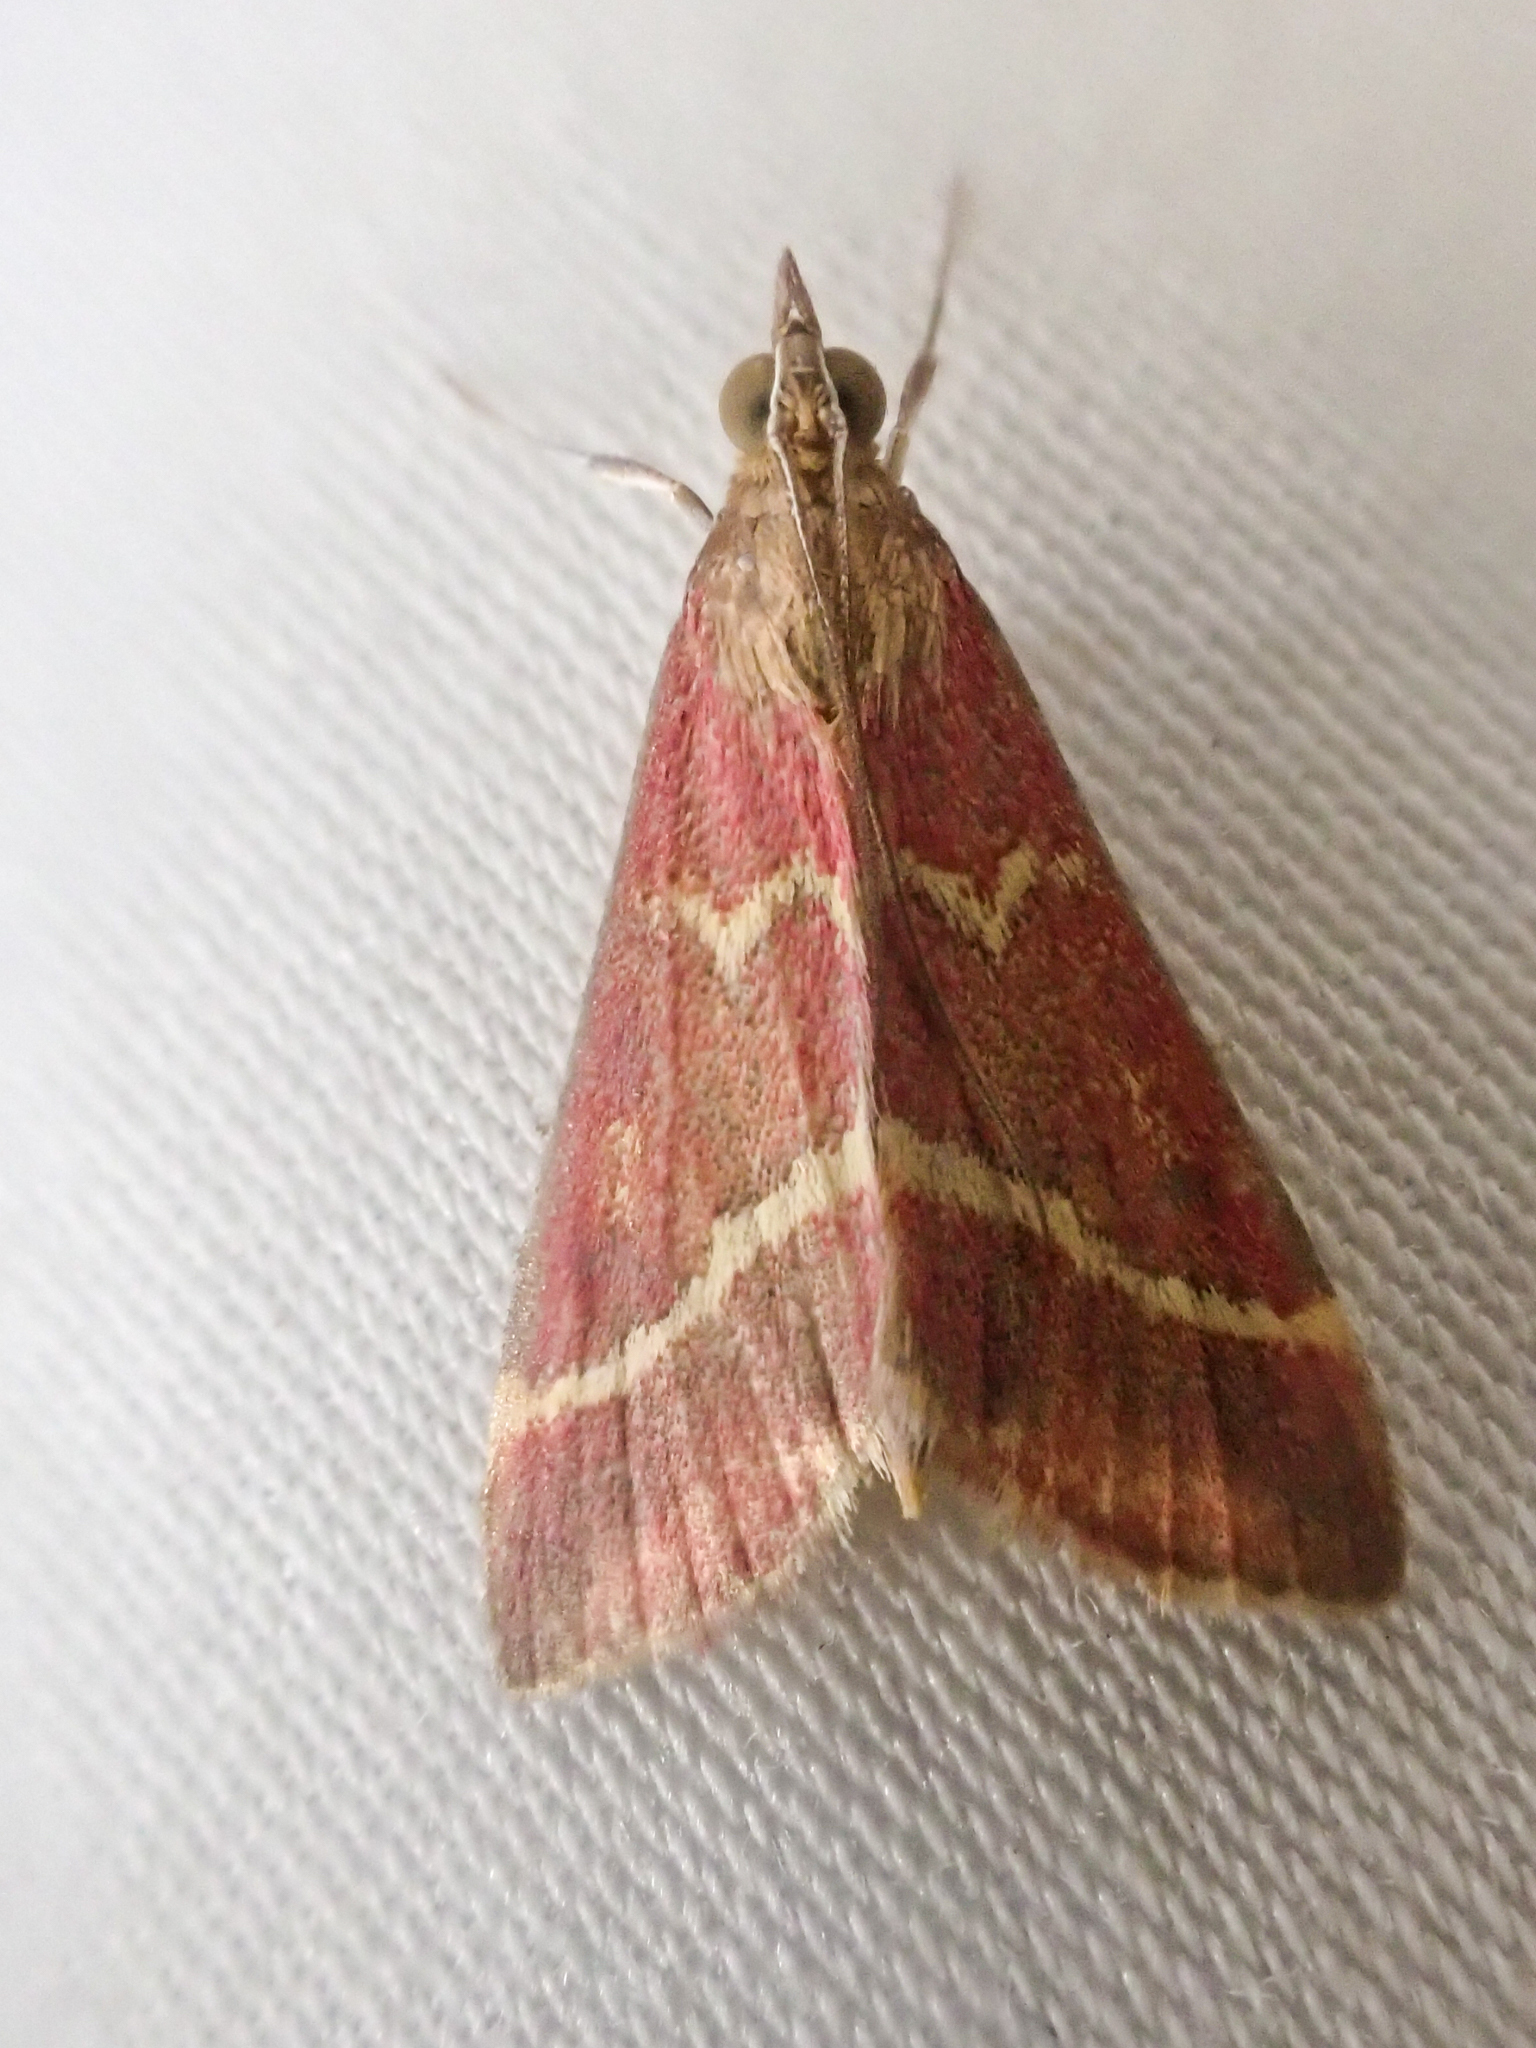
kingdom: Animalia
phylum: Arthropoda
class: Insecta
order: Lepidoptera
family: Crambidae
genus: Pyrausta
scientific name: Pyrausta volupialis
